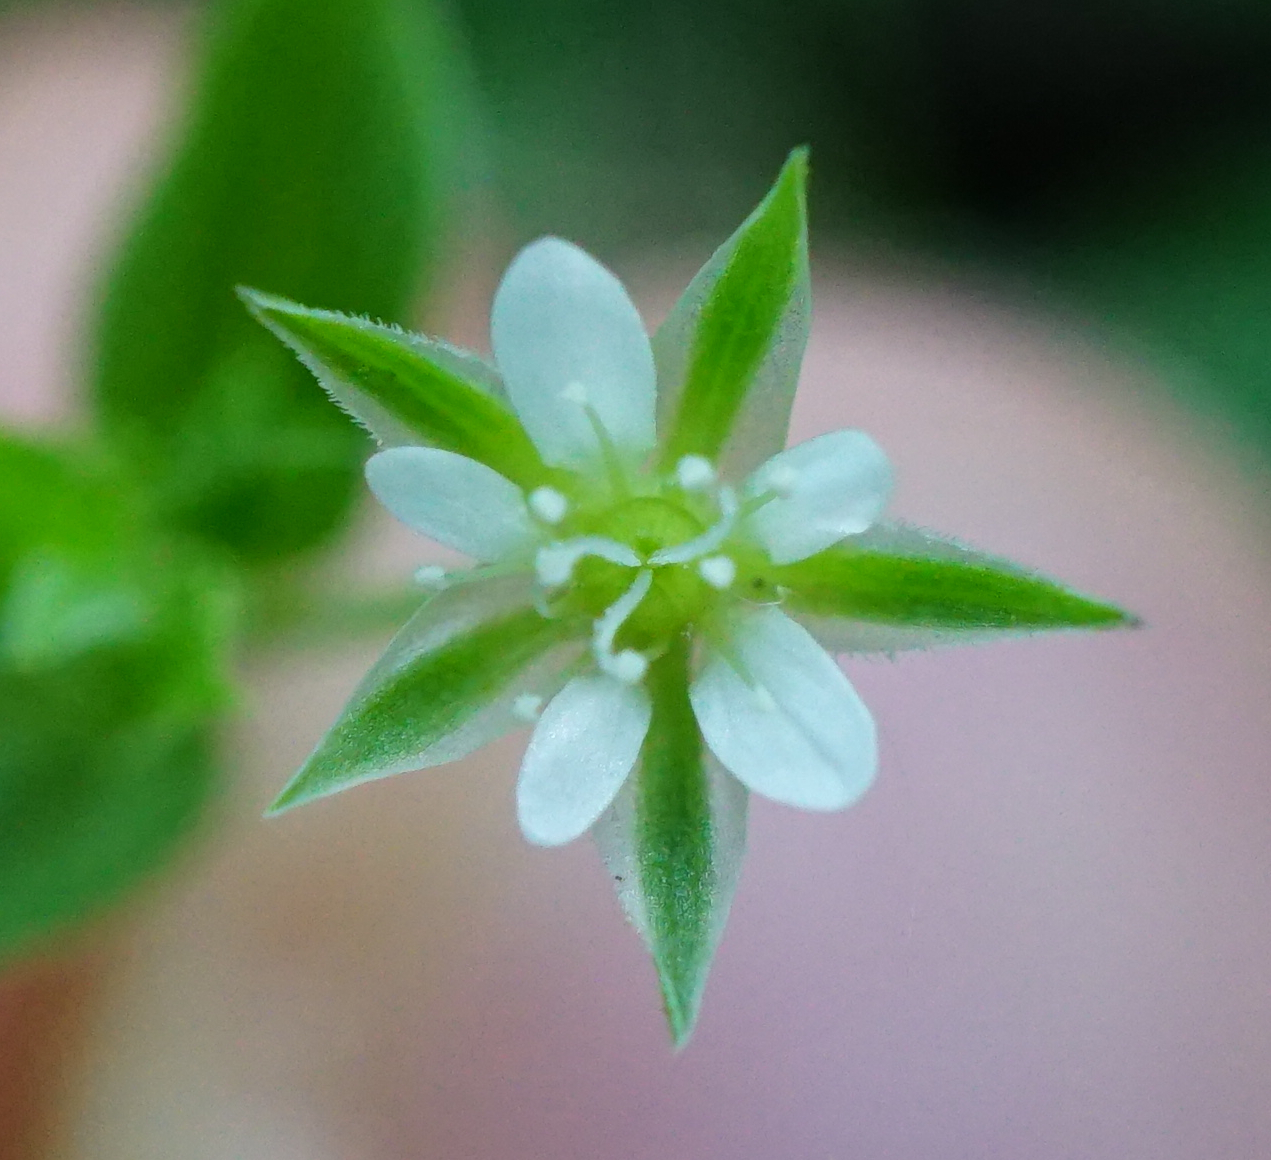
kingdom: Plantae
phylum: Tracheophyta
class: Magnoliopsida
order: Caryophyllales
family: Caryophyllaceae
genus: Moehringia
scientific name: Moehringia trinervia
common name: Three-nerved sandwort
